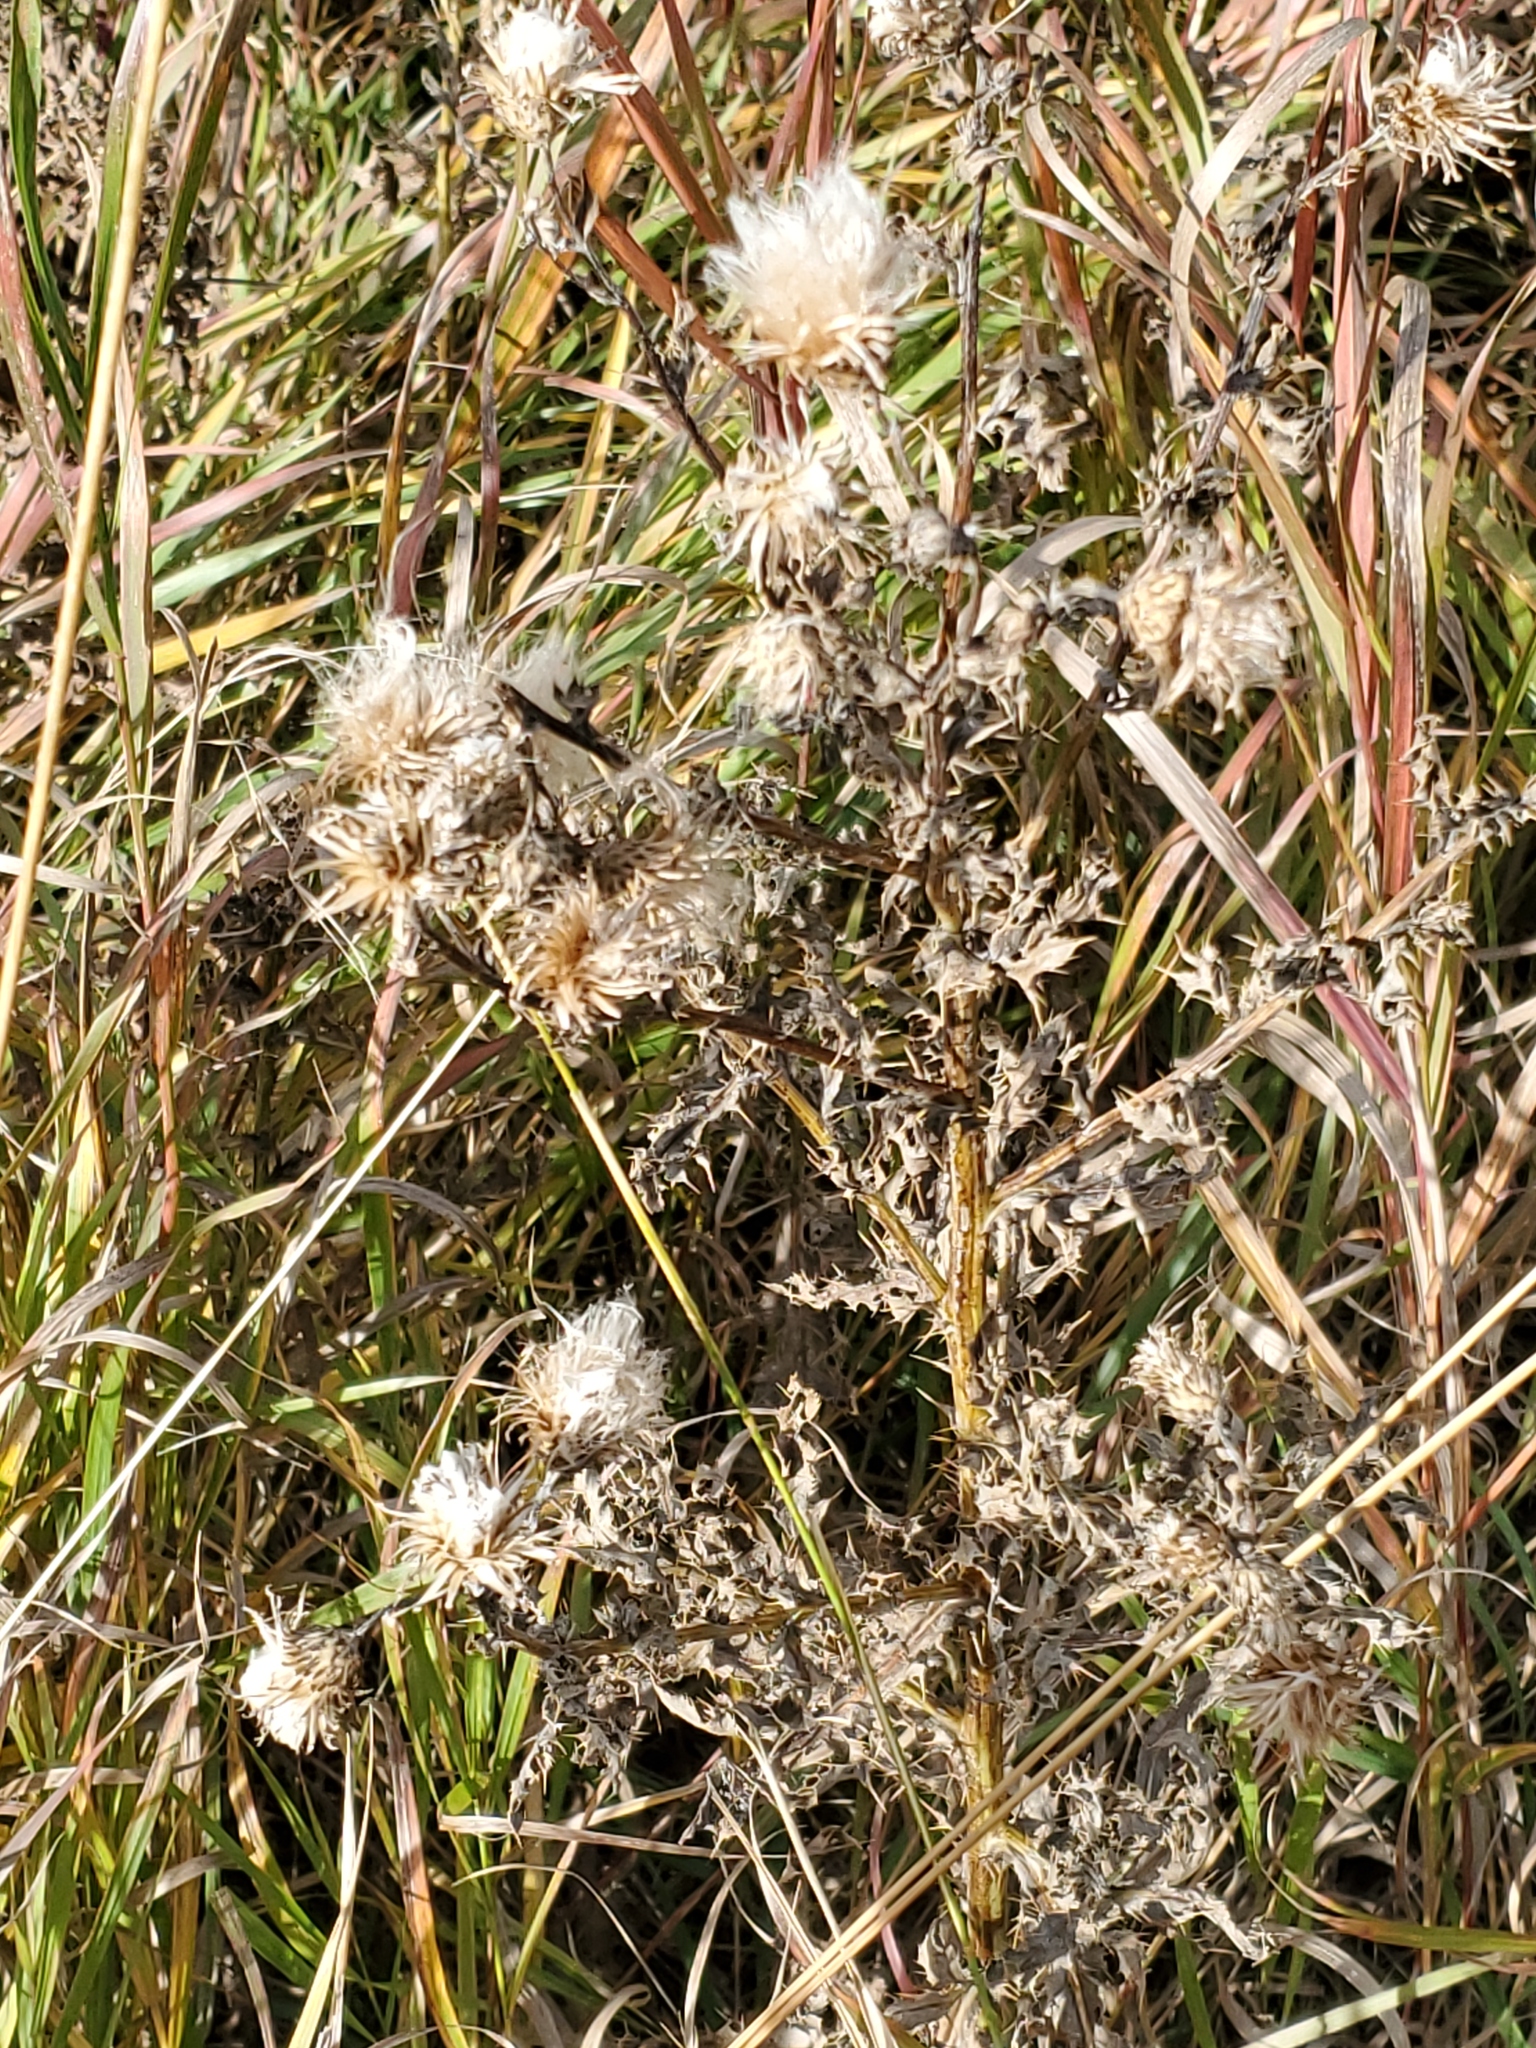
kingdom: Plantae
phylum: Tracheophyta
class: Magnoliopsida
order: Asterales
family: Asteraceae
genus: Cirsium
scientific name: Cirsium arvense
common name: Creeping thistle
